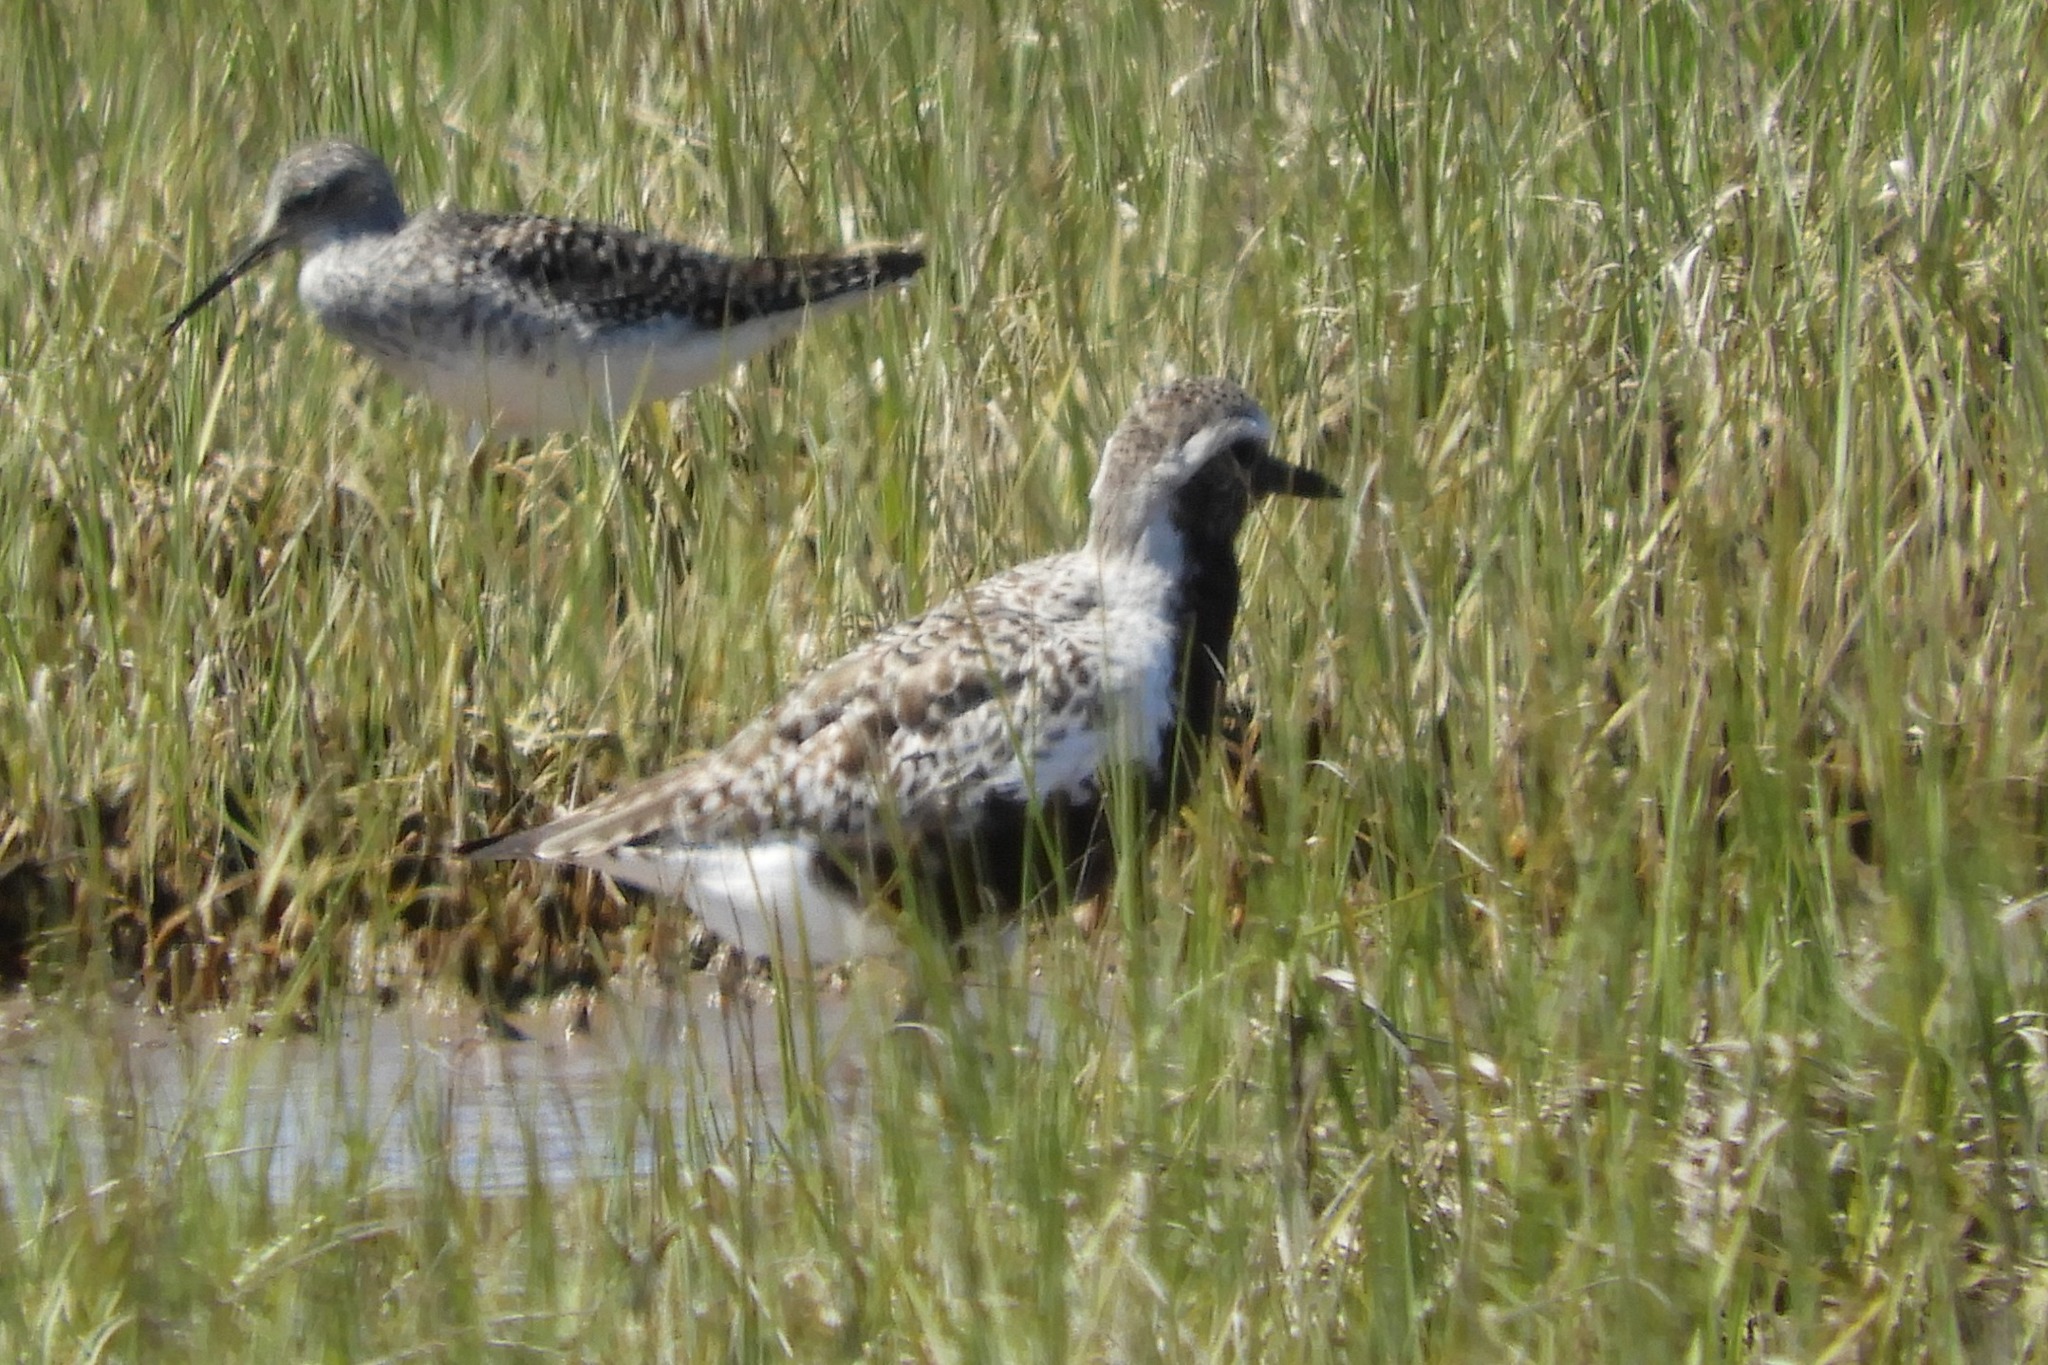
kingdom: Animalia
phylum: Chordata
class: Aves
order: Charadriiformes
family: Charadriidae
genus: Pluvialis
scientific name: Pluvialis squatarola
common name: Grey plover
